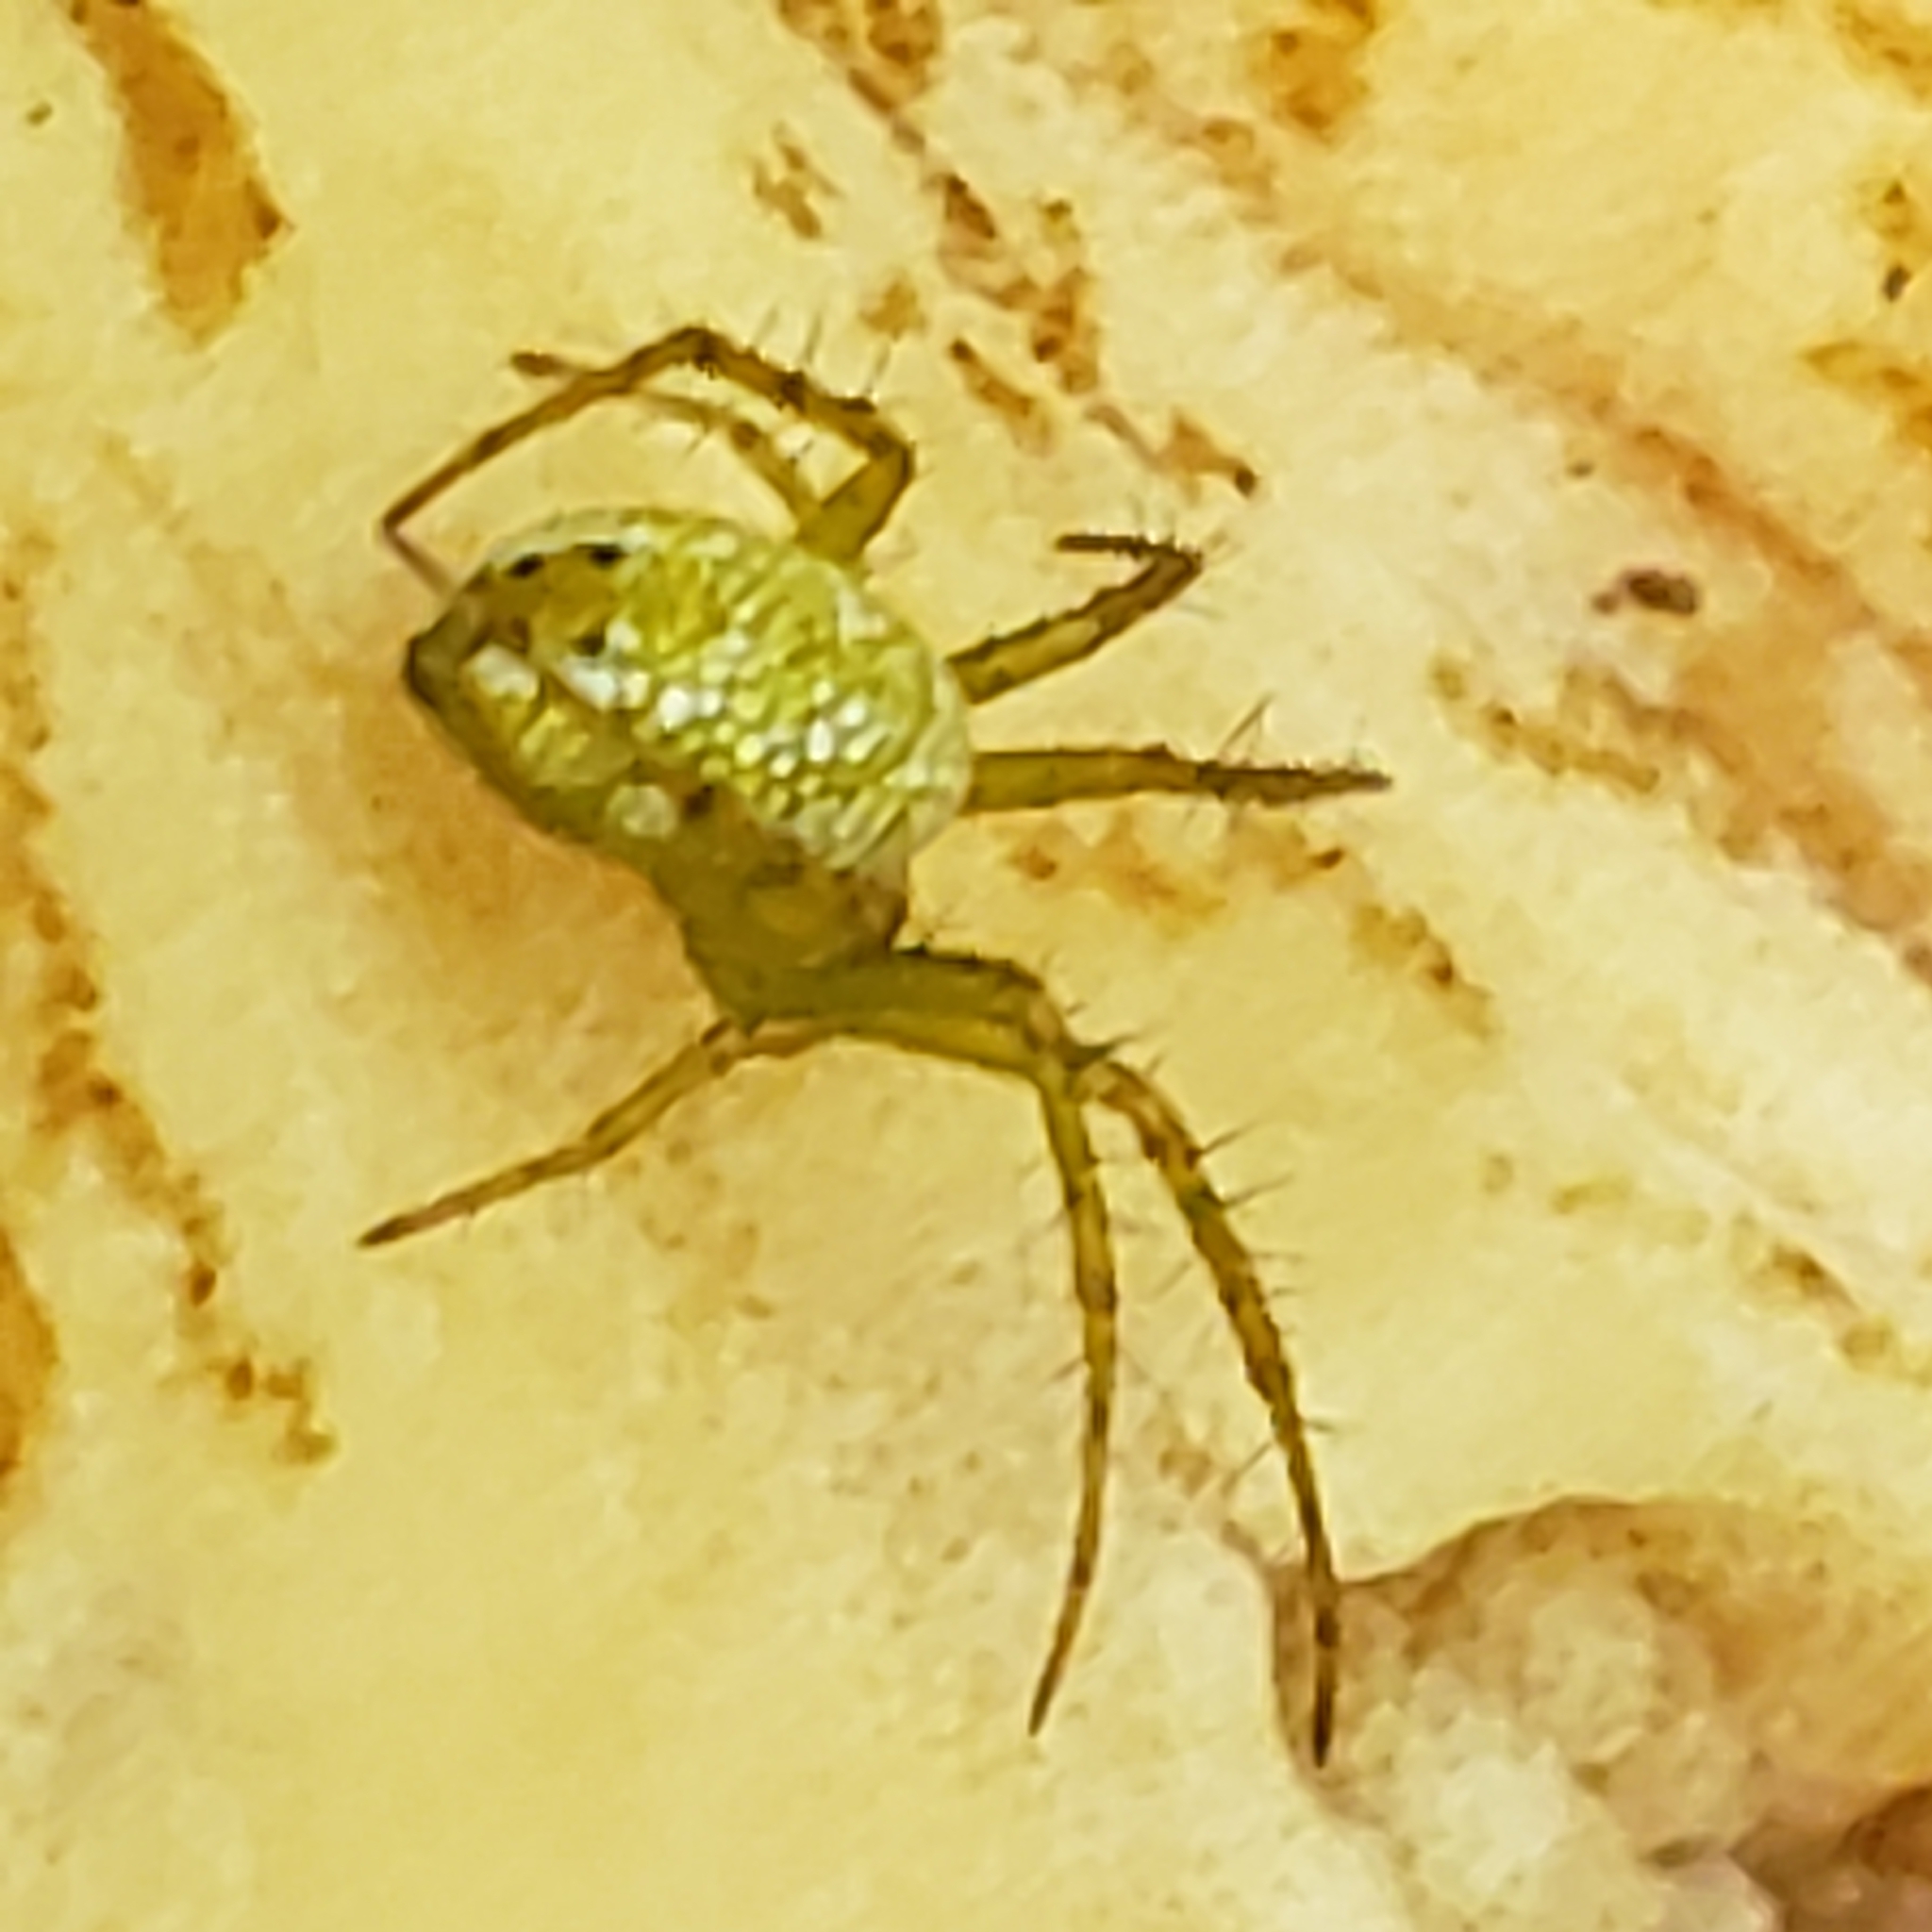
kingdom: Animalia
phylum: Arthropoda
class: Arachnida
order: Araneae
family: Araneidae
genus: Mangora
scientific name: Mangora maculata
